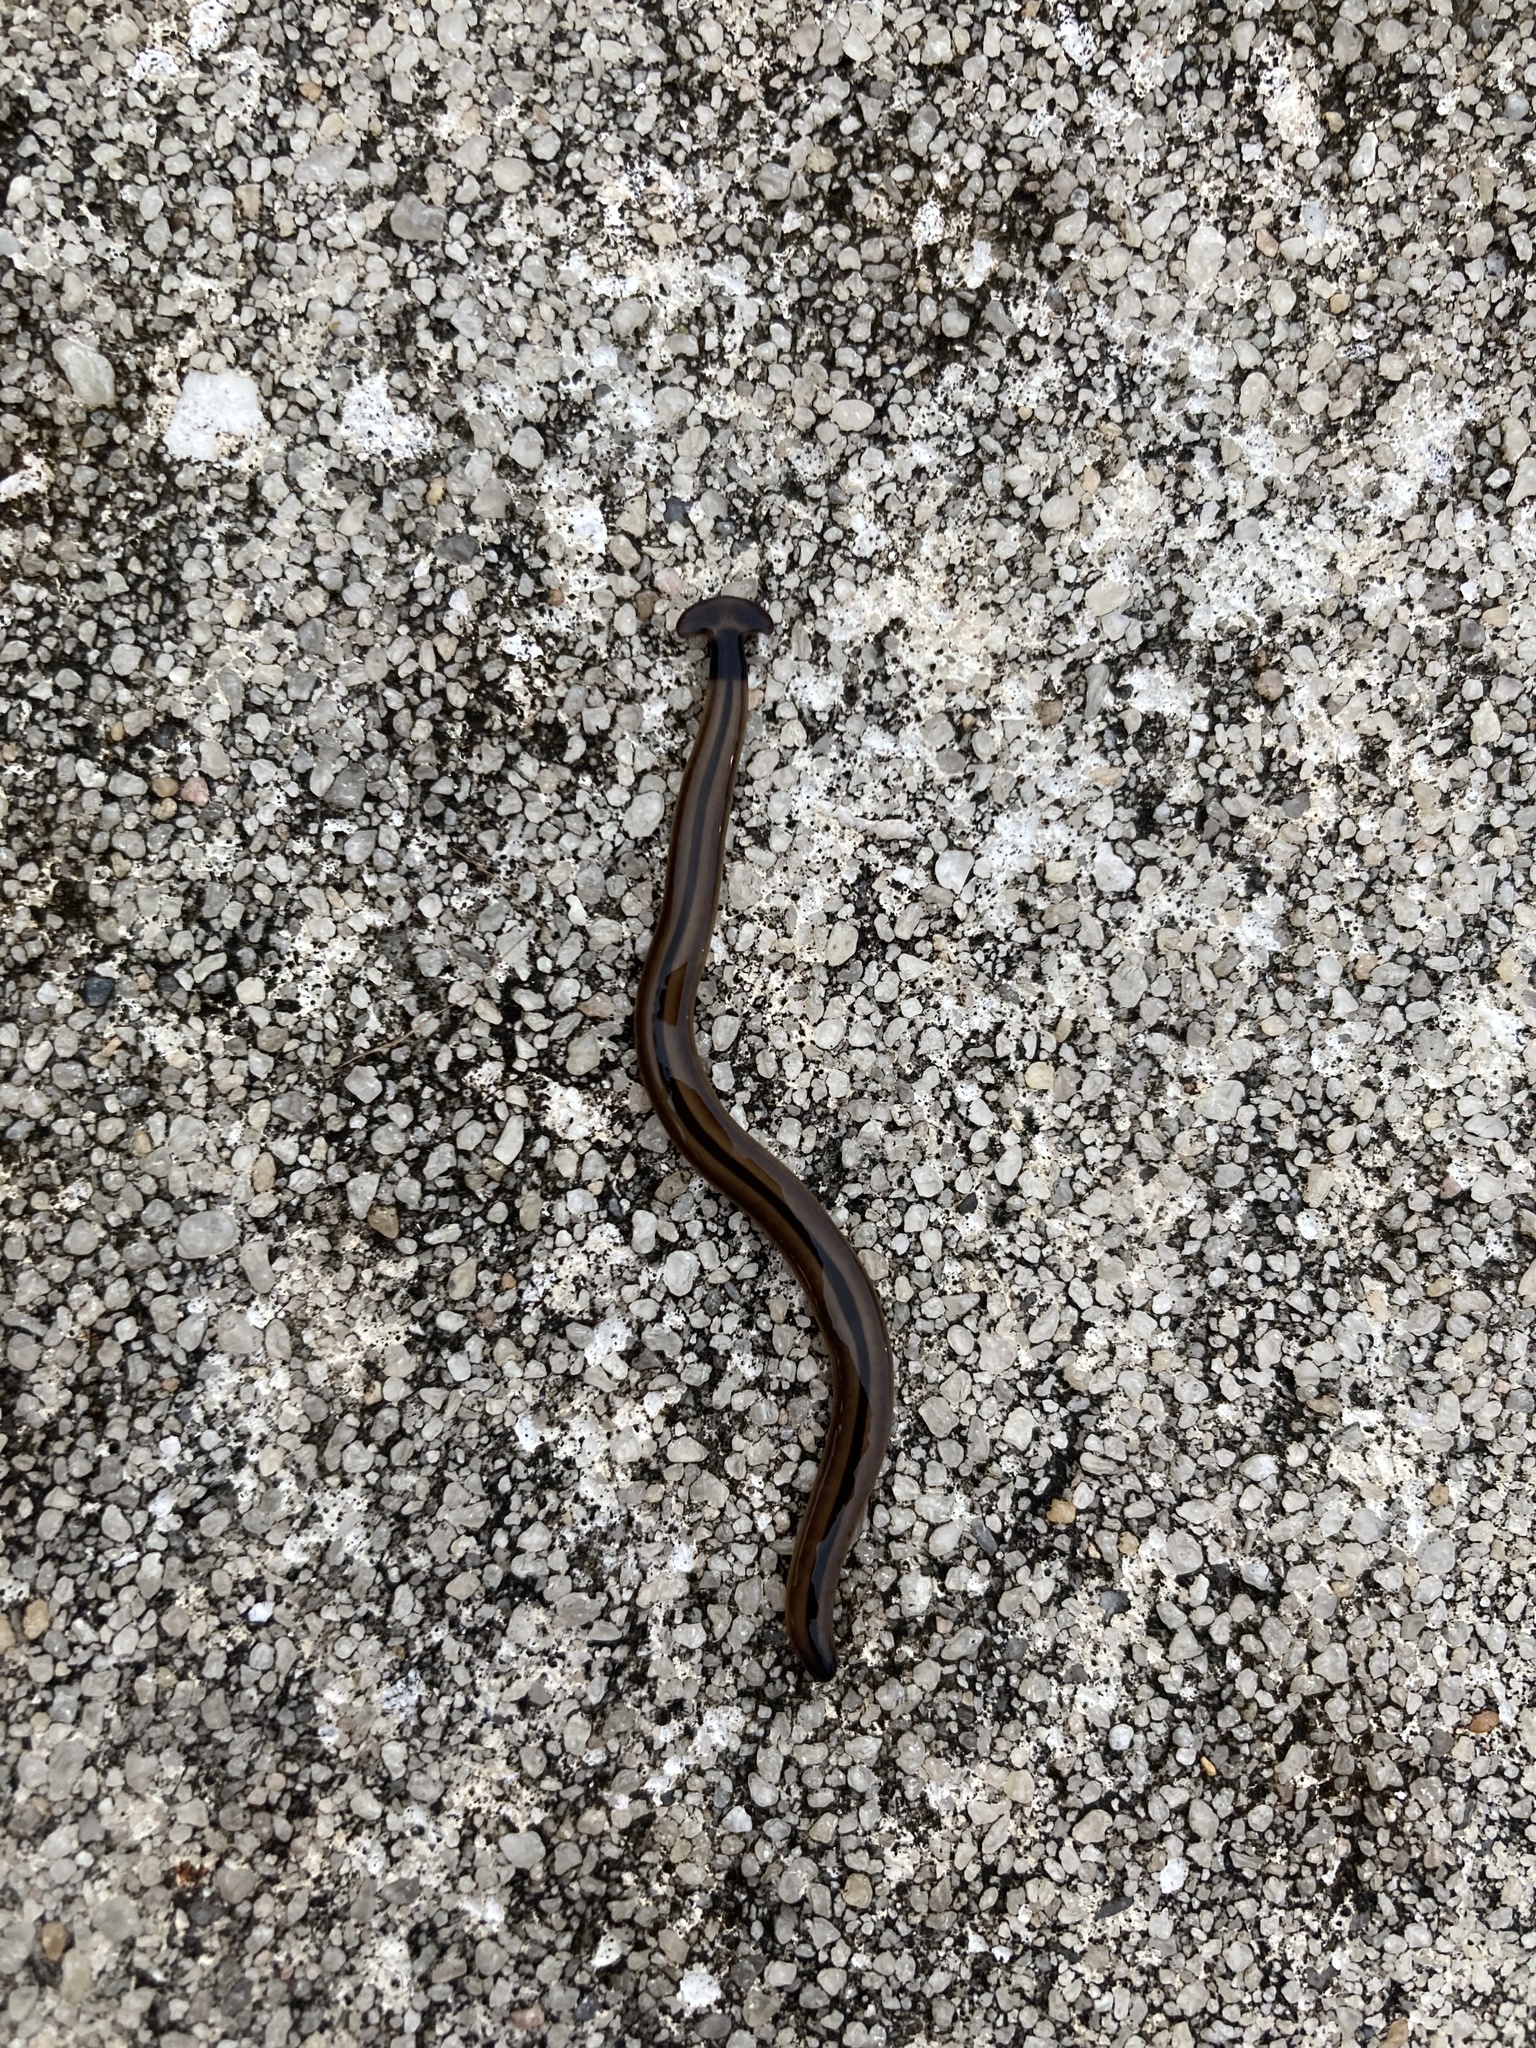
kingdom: Animalia
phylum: Platyhelminthes
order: Tricladida
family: Geoplanidae
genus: Bipalium
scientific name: Bipalium vagum
